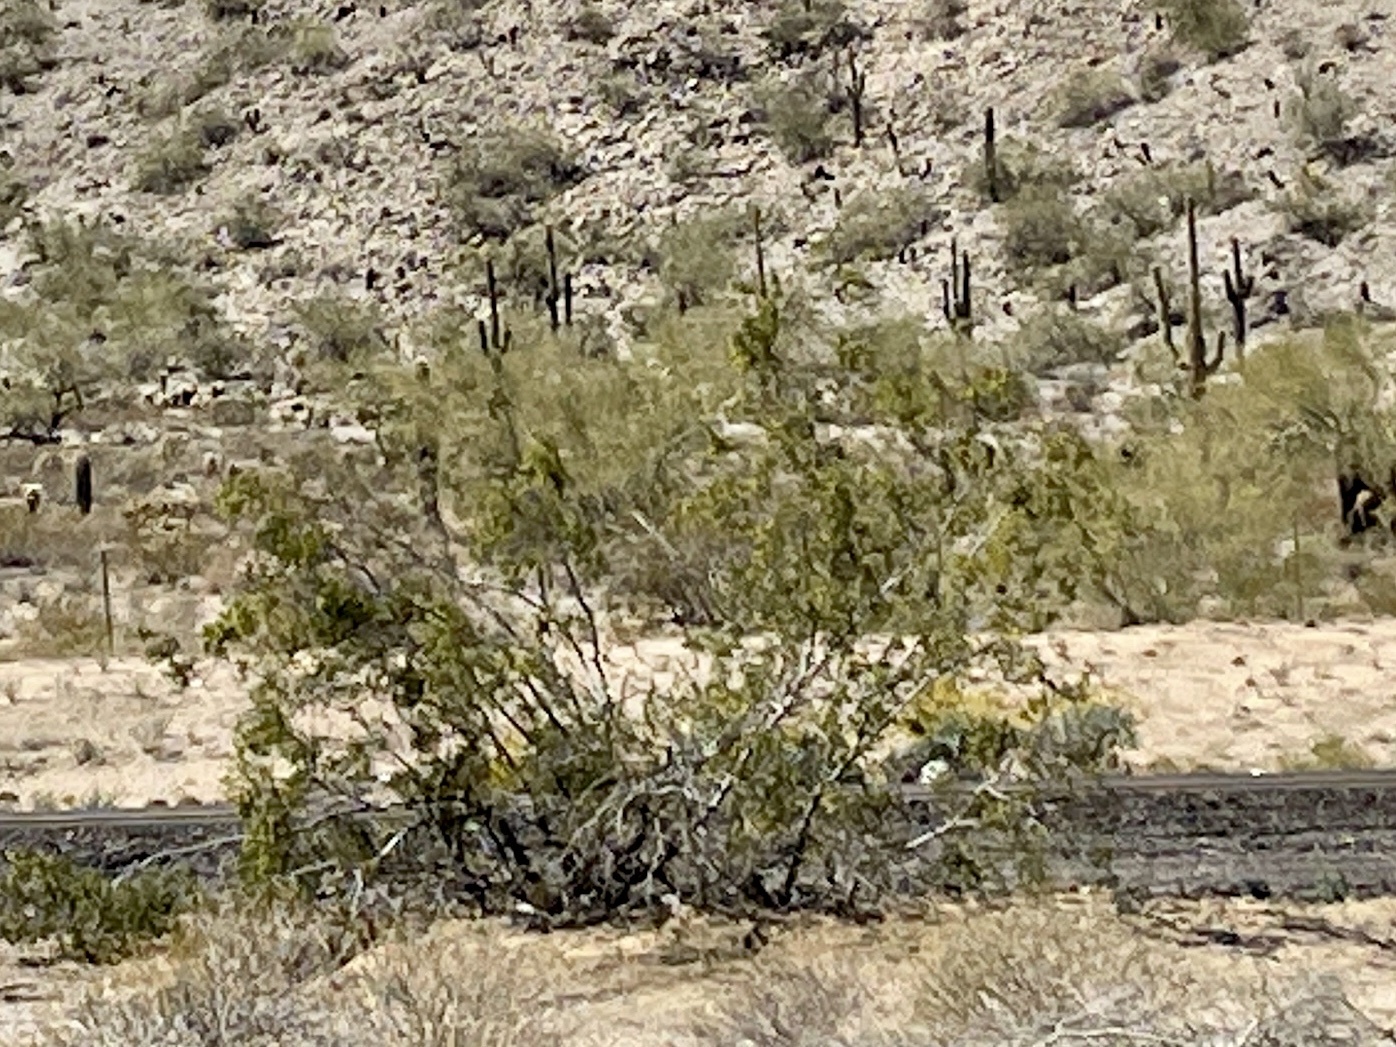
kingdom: Plantae
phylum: Tracheophyta
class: Magnoliopsida
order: Zygophyllales
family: Zygophyllaceae
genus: Larrea
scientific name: Larrea tridentata
